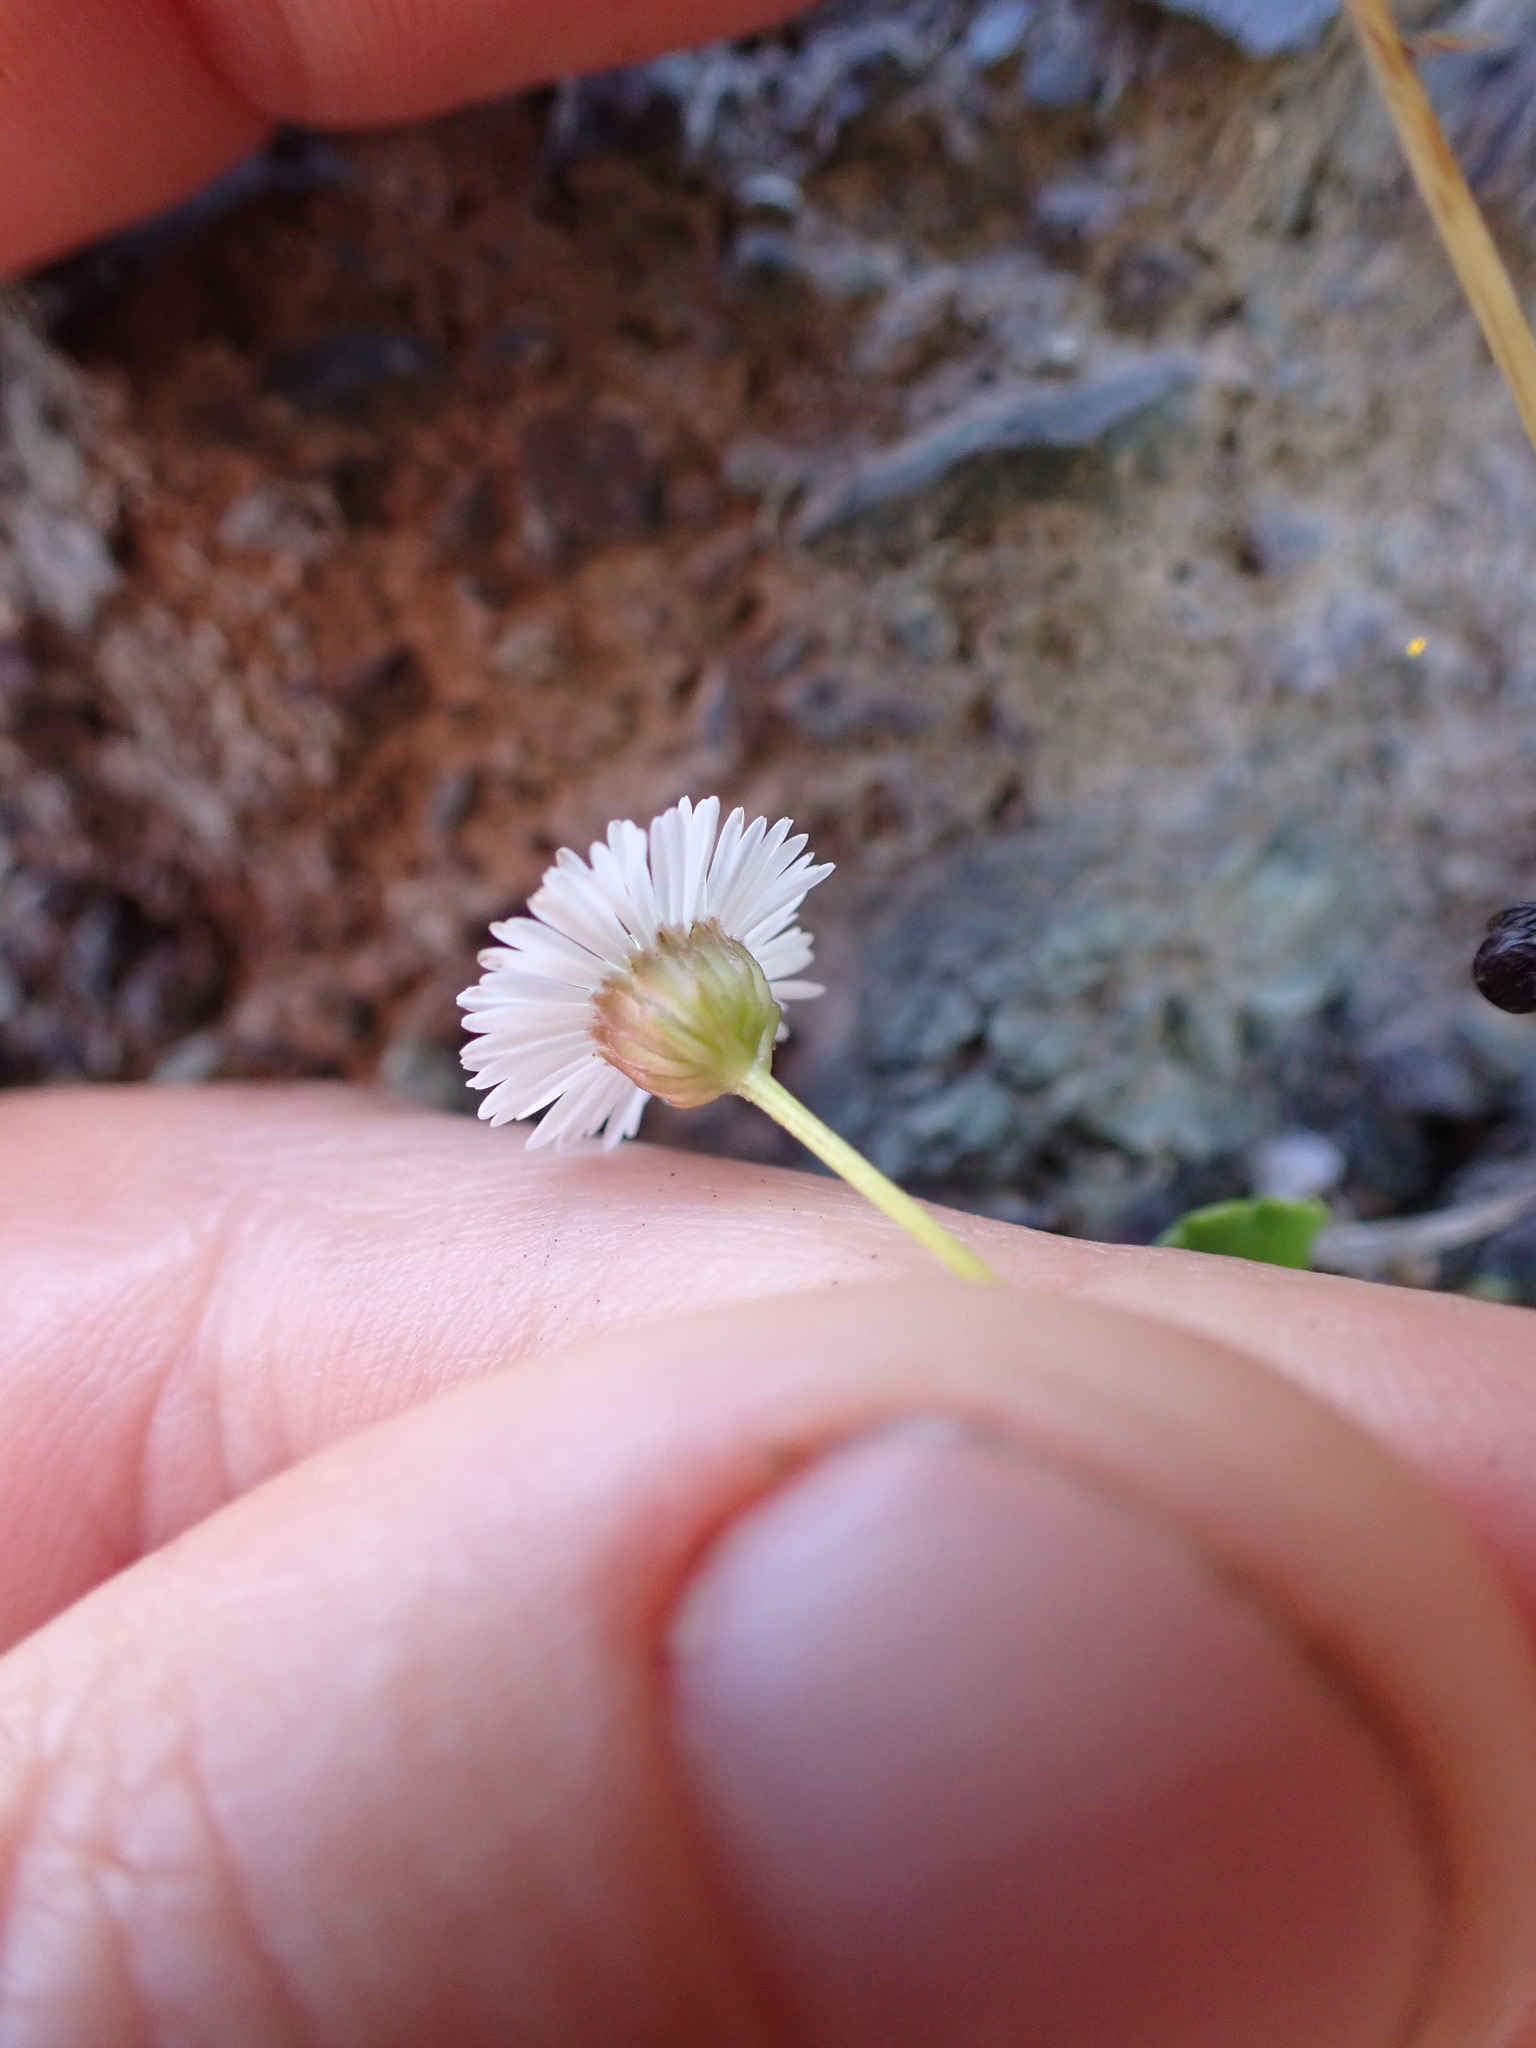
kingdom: Plantae
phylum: Tracheophyta
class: Magnoliopsida
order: Asterales
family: Asteraceae
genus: Lagenophora
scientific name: Lagenophora pumila
